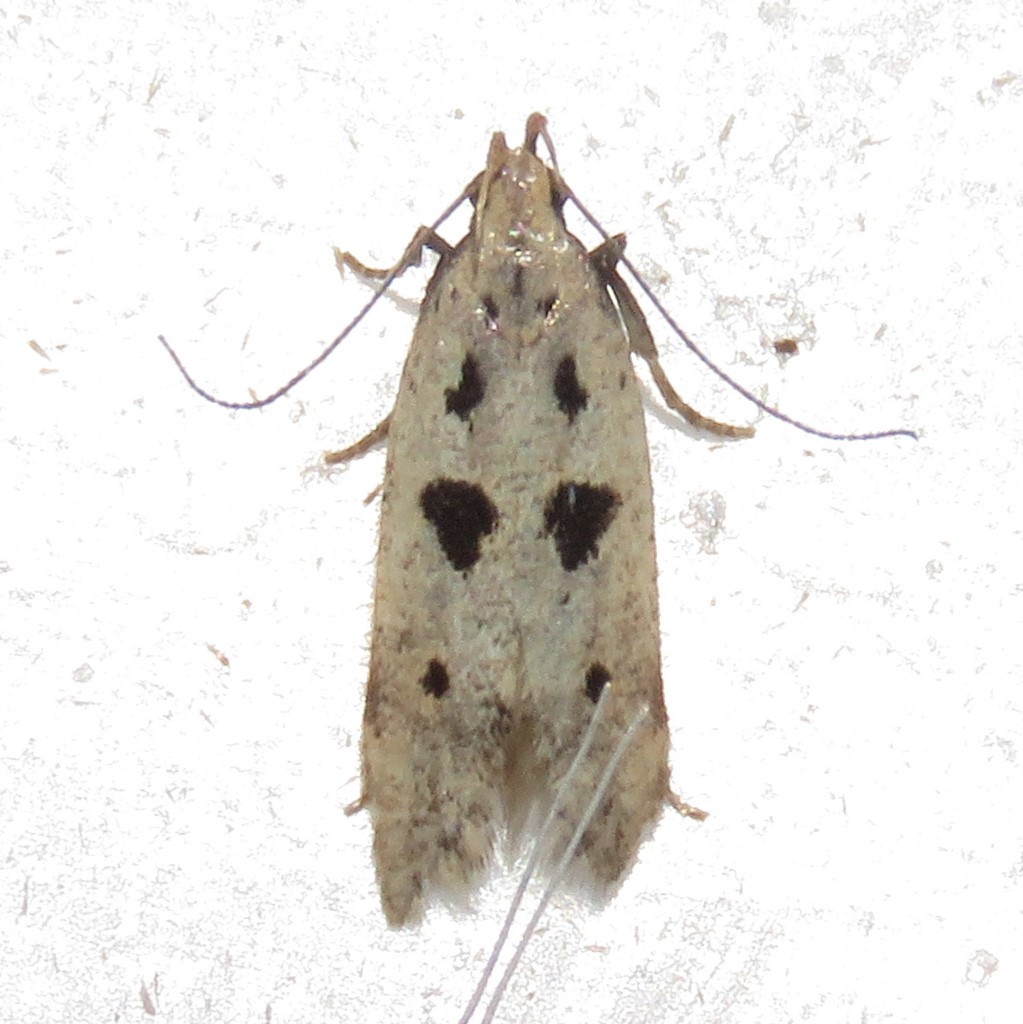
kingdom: Animalia
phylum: Arthropoda
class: Insecta
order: Lepidoptera
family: Gelechiidae
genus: Deltophora
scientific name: Deltophora sella
